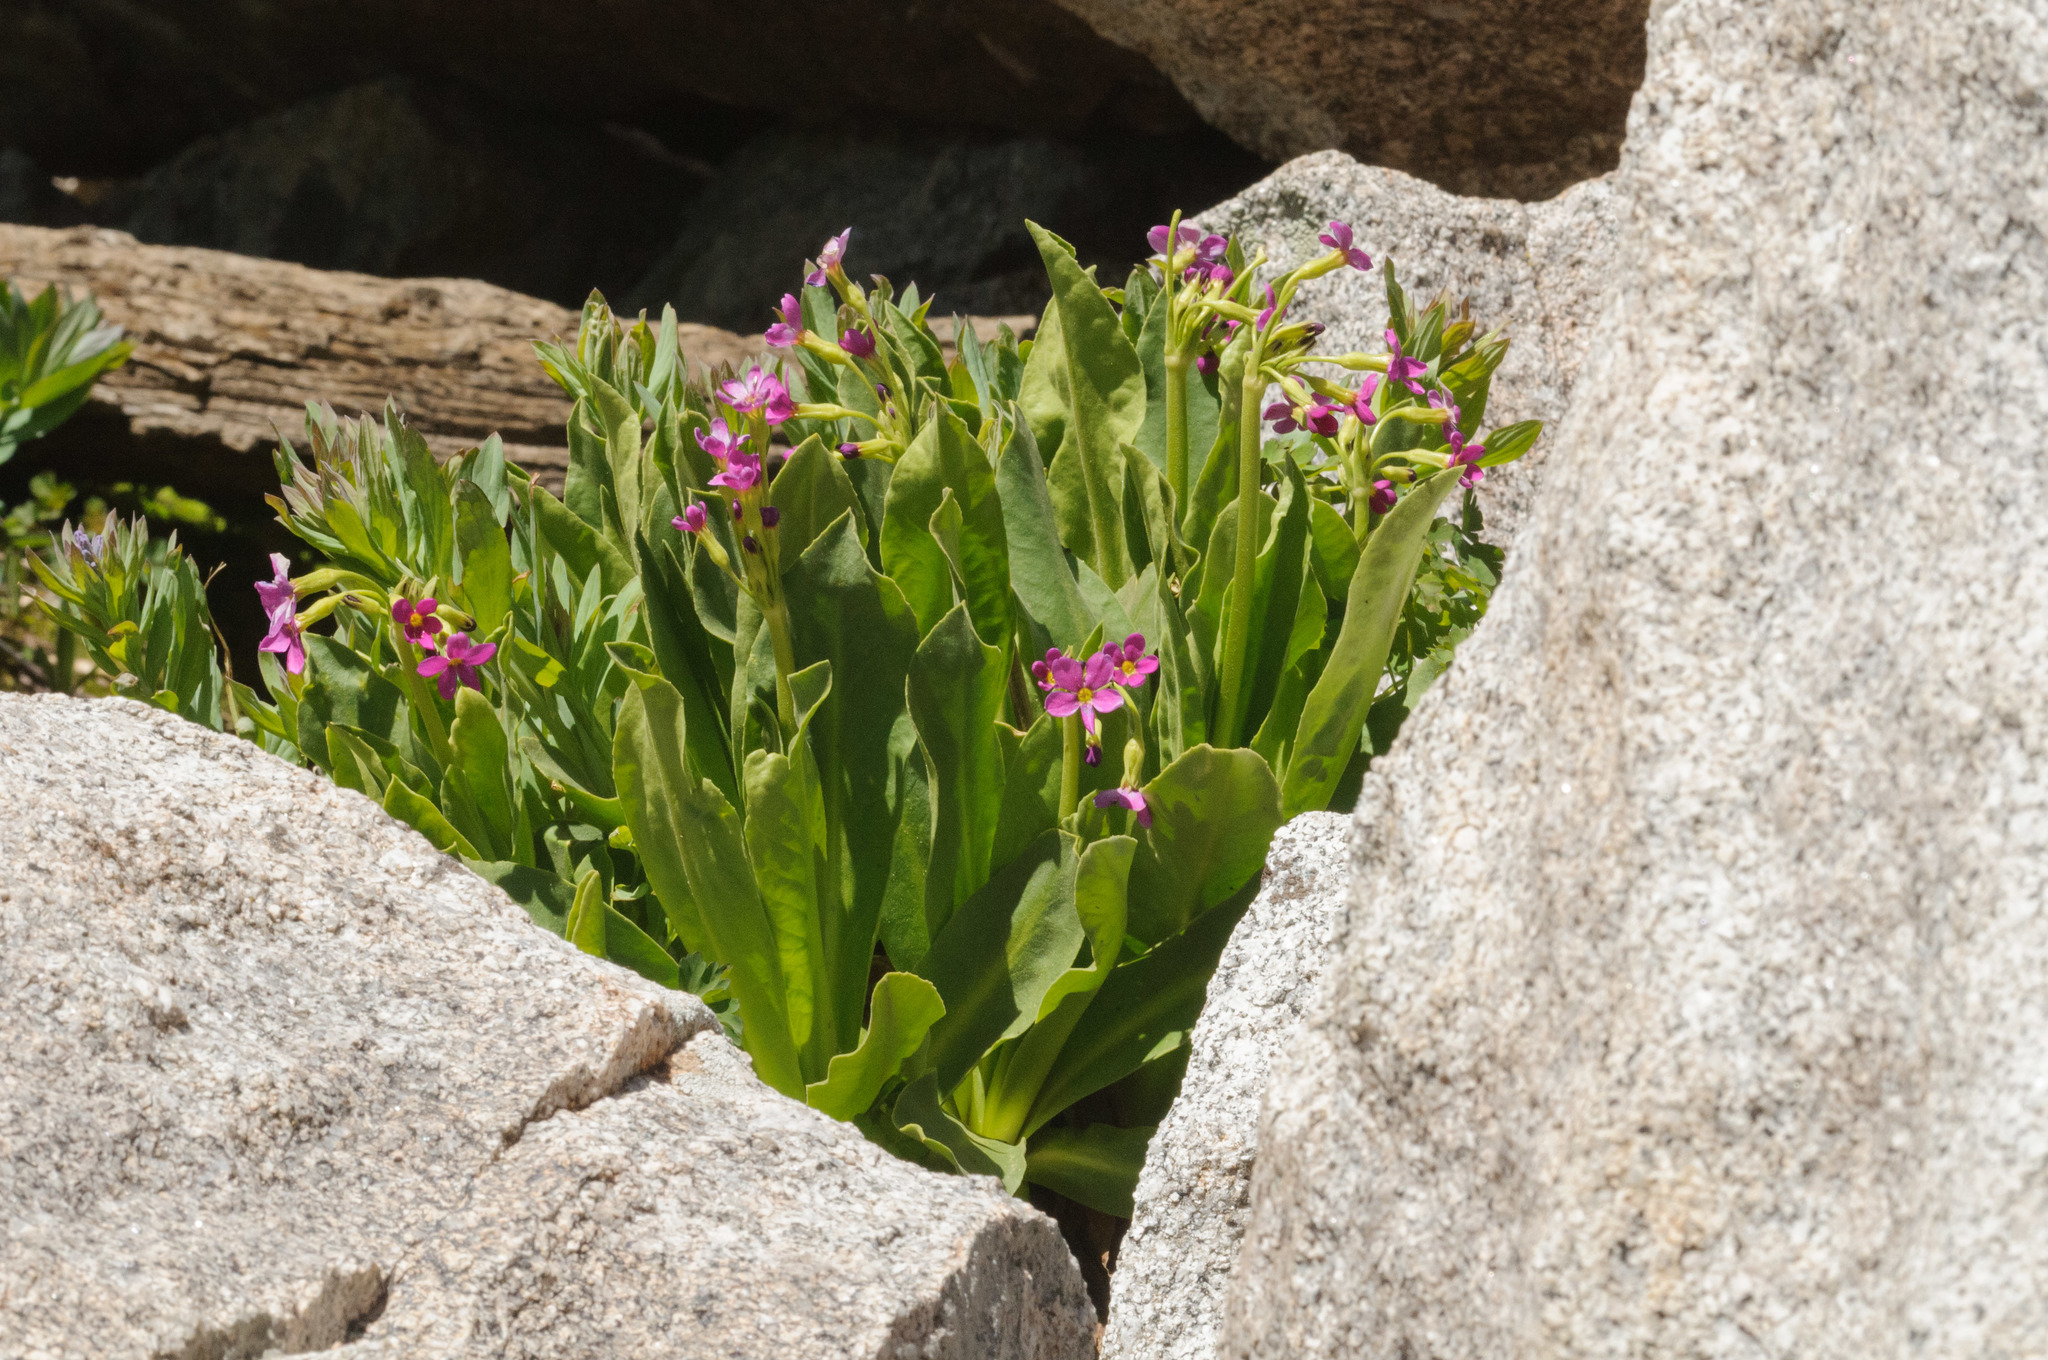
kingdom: Plantae
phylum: Tracheophyta
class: Magnoliopsida
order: Ericales
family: Primulaceae
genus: Primula
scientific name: Primula parryi
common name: Parry's primrose
